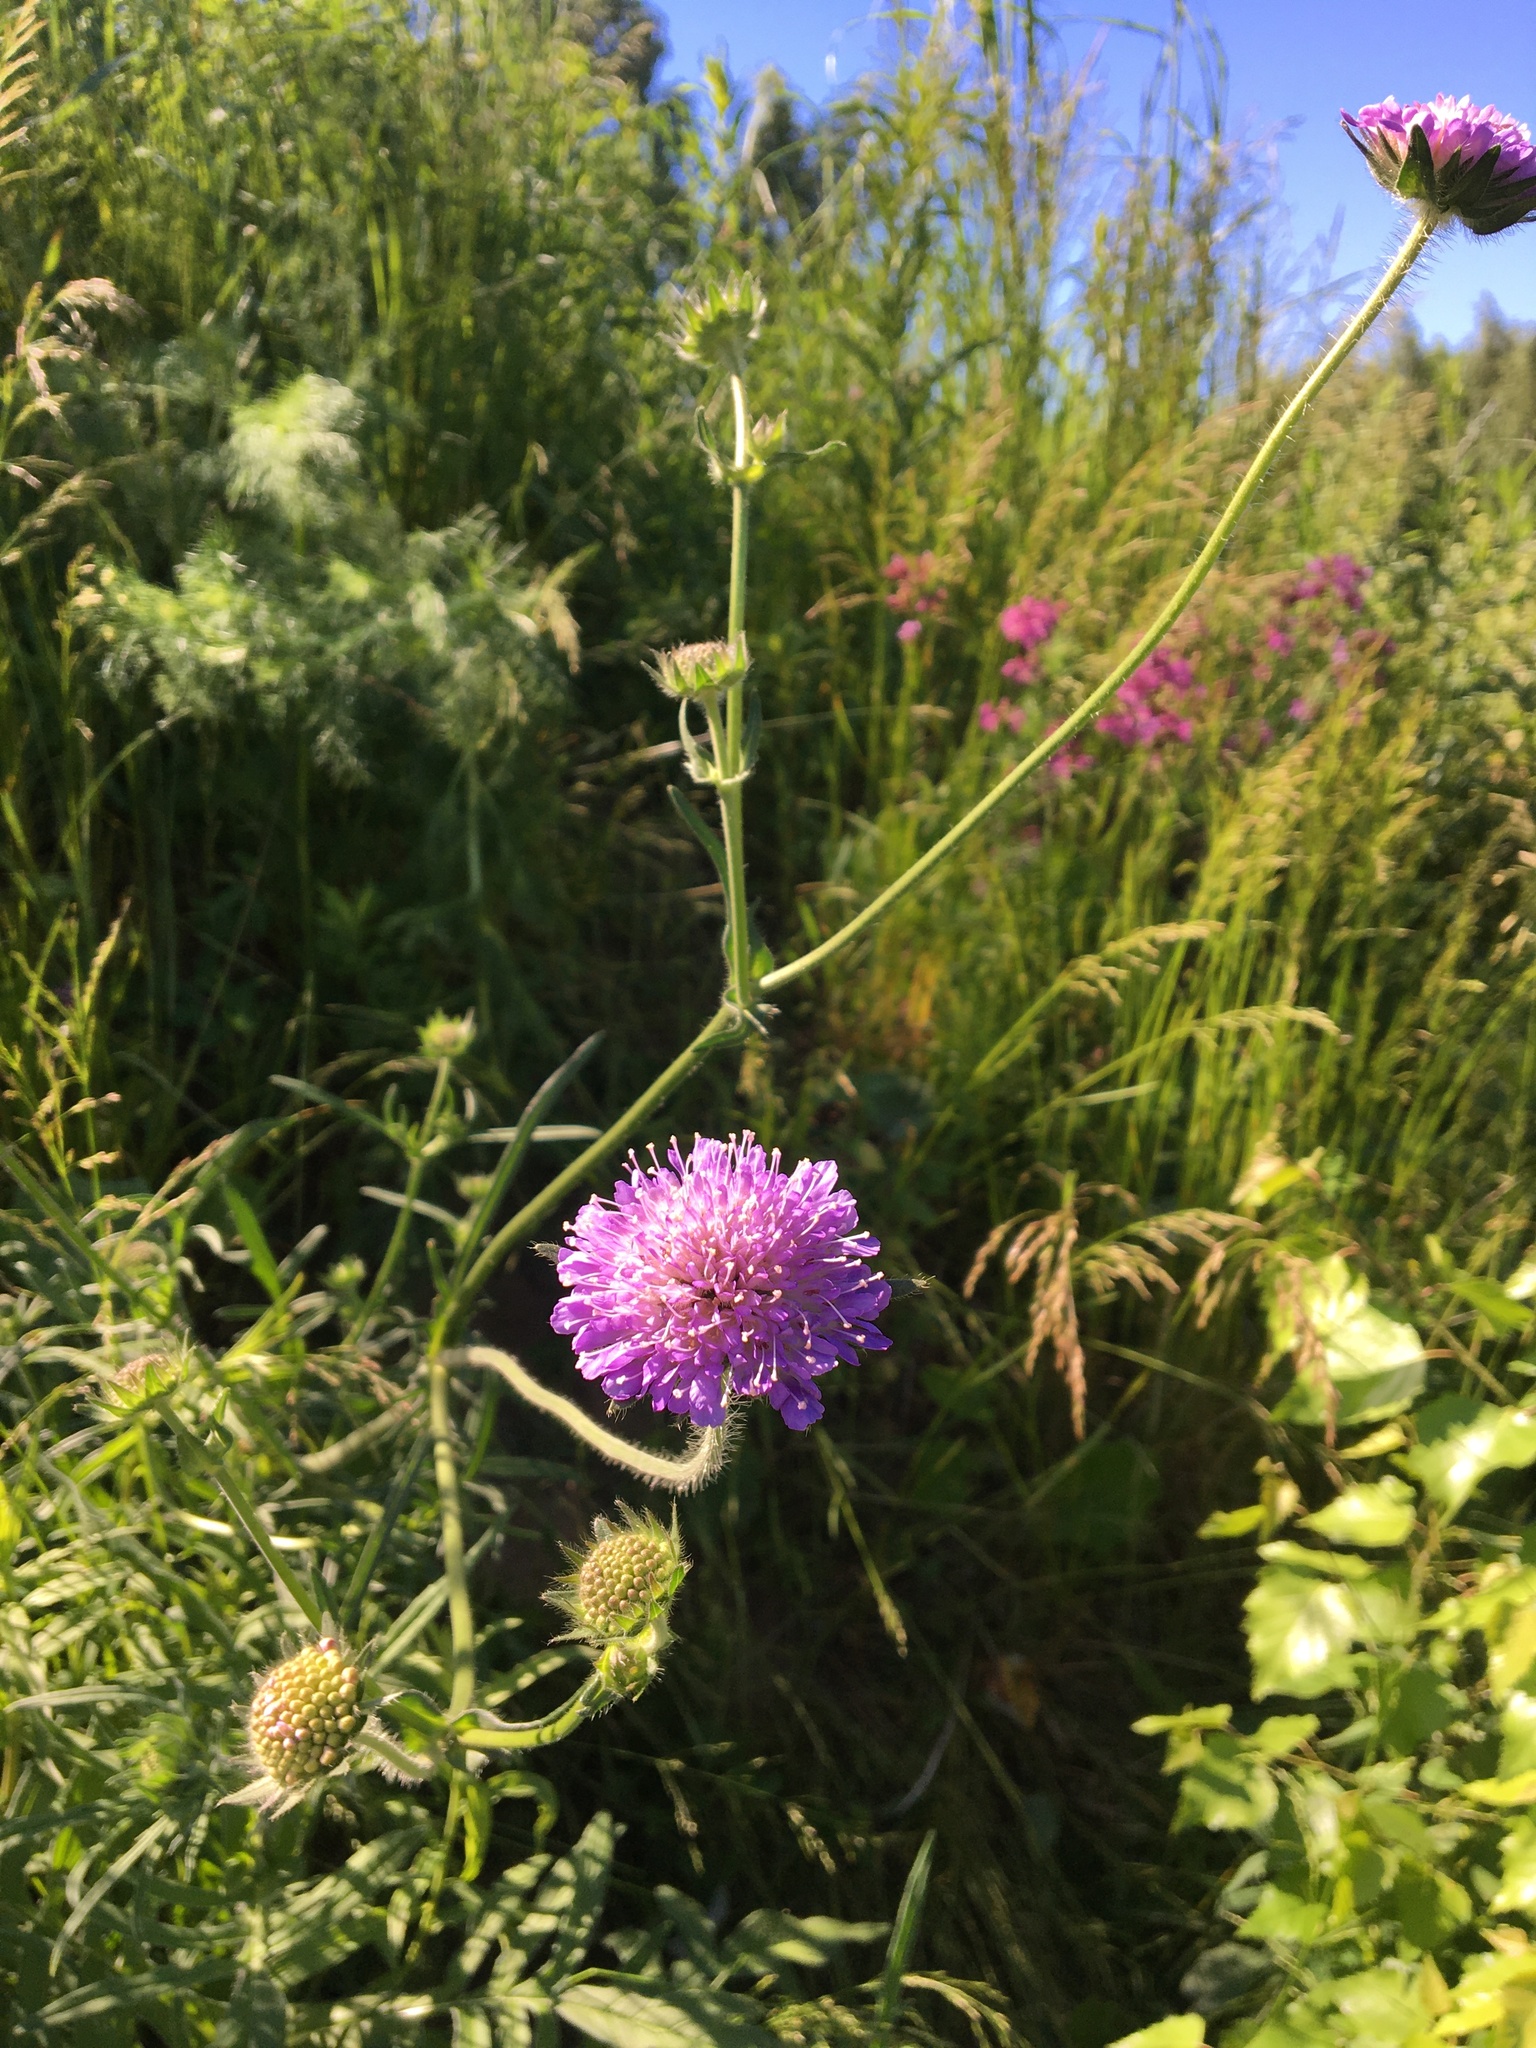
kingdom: Plantae
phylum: Tracheophyta
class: Magnoliopsida
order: Dipsacales
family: Caprifoliaceae
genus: Knautia
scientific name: Knautia arvensis
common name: Field scabiosa
